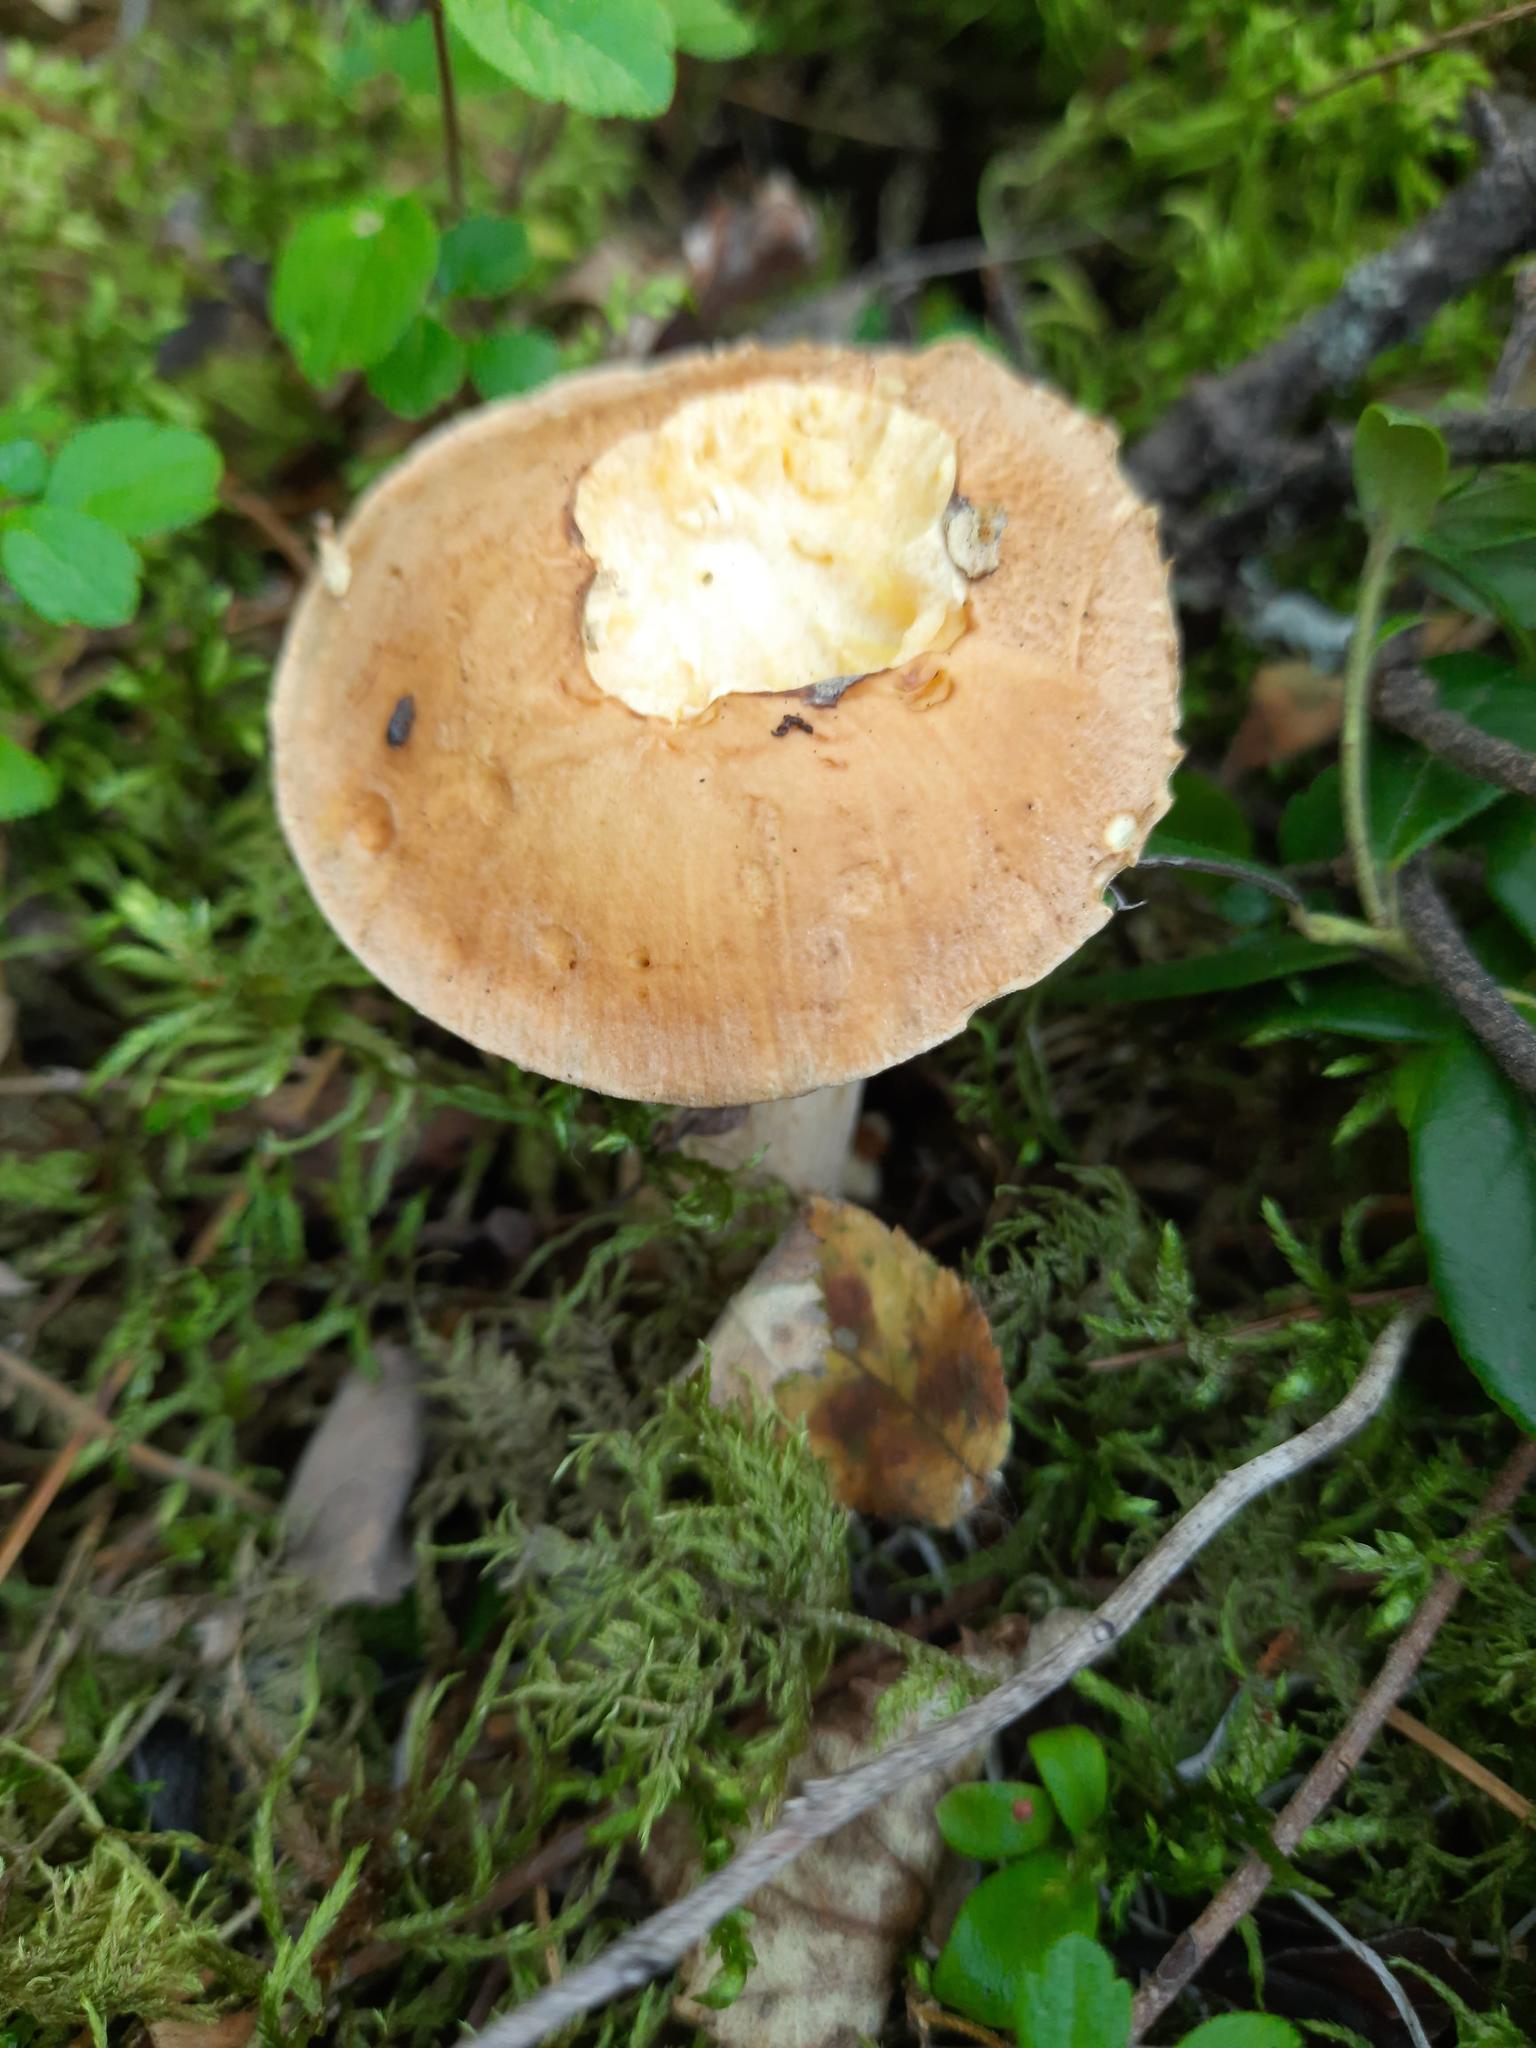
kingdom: Fungi
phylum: Basidiomycota
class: Agaricomycetes
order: Boletales
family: Suillaceae
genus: Suillus
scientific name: Suillus punctipes
